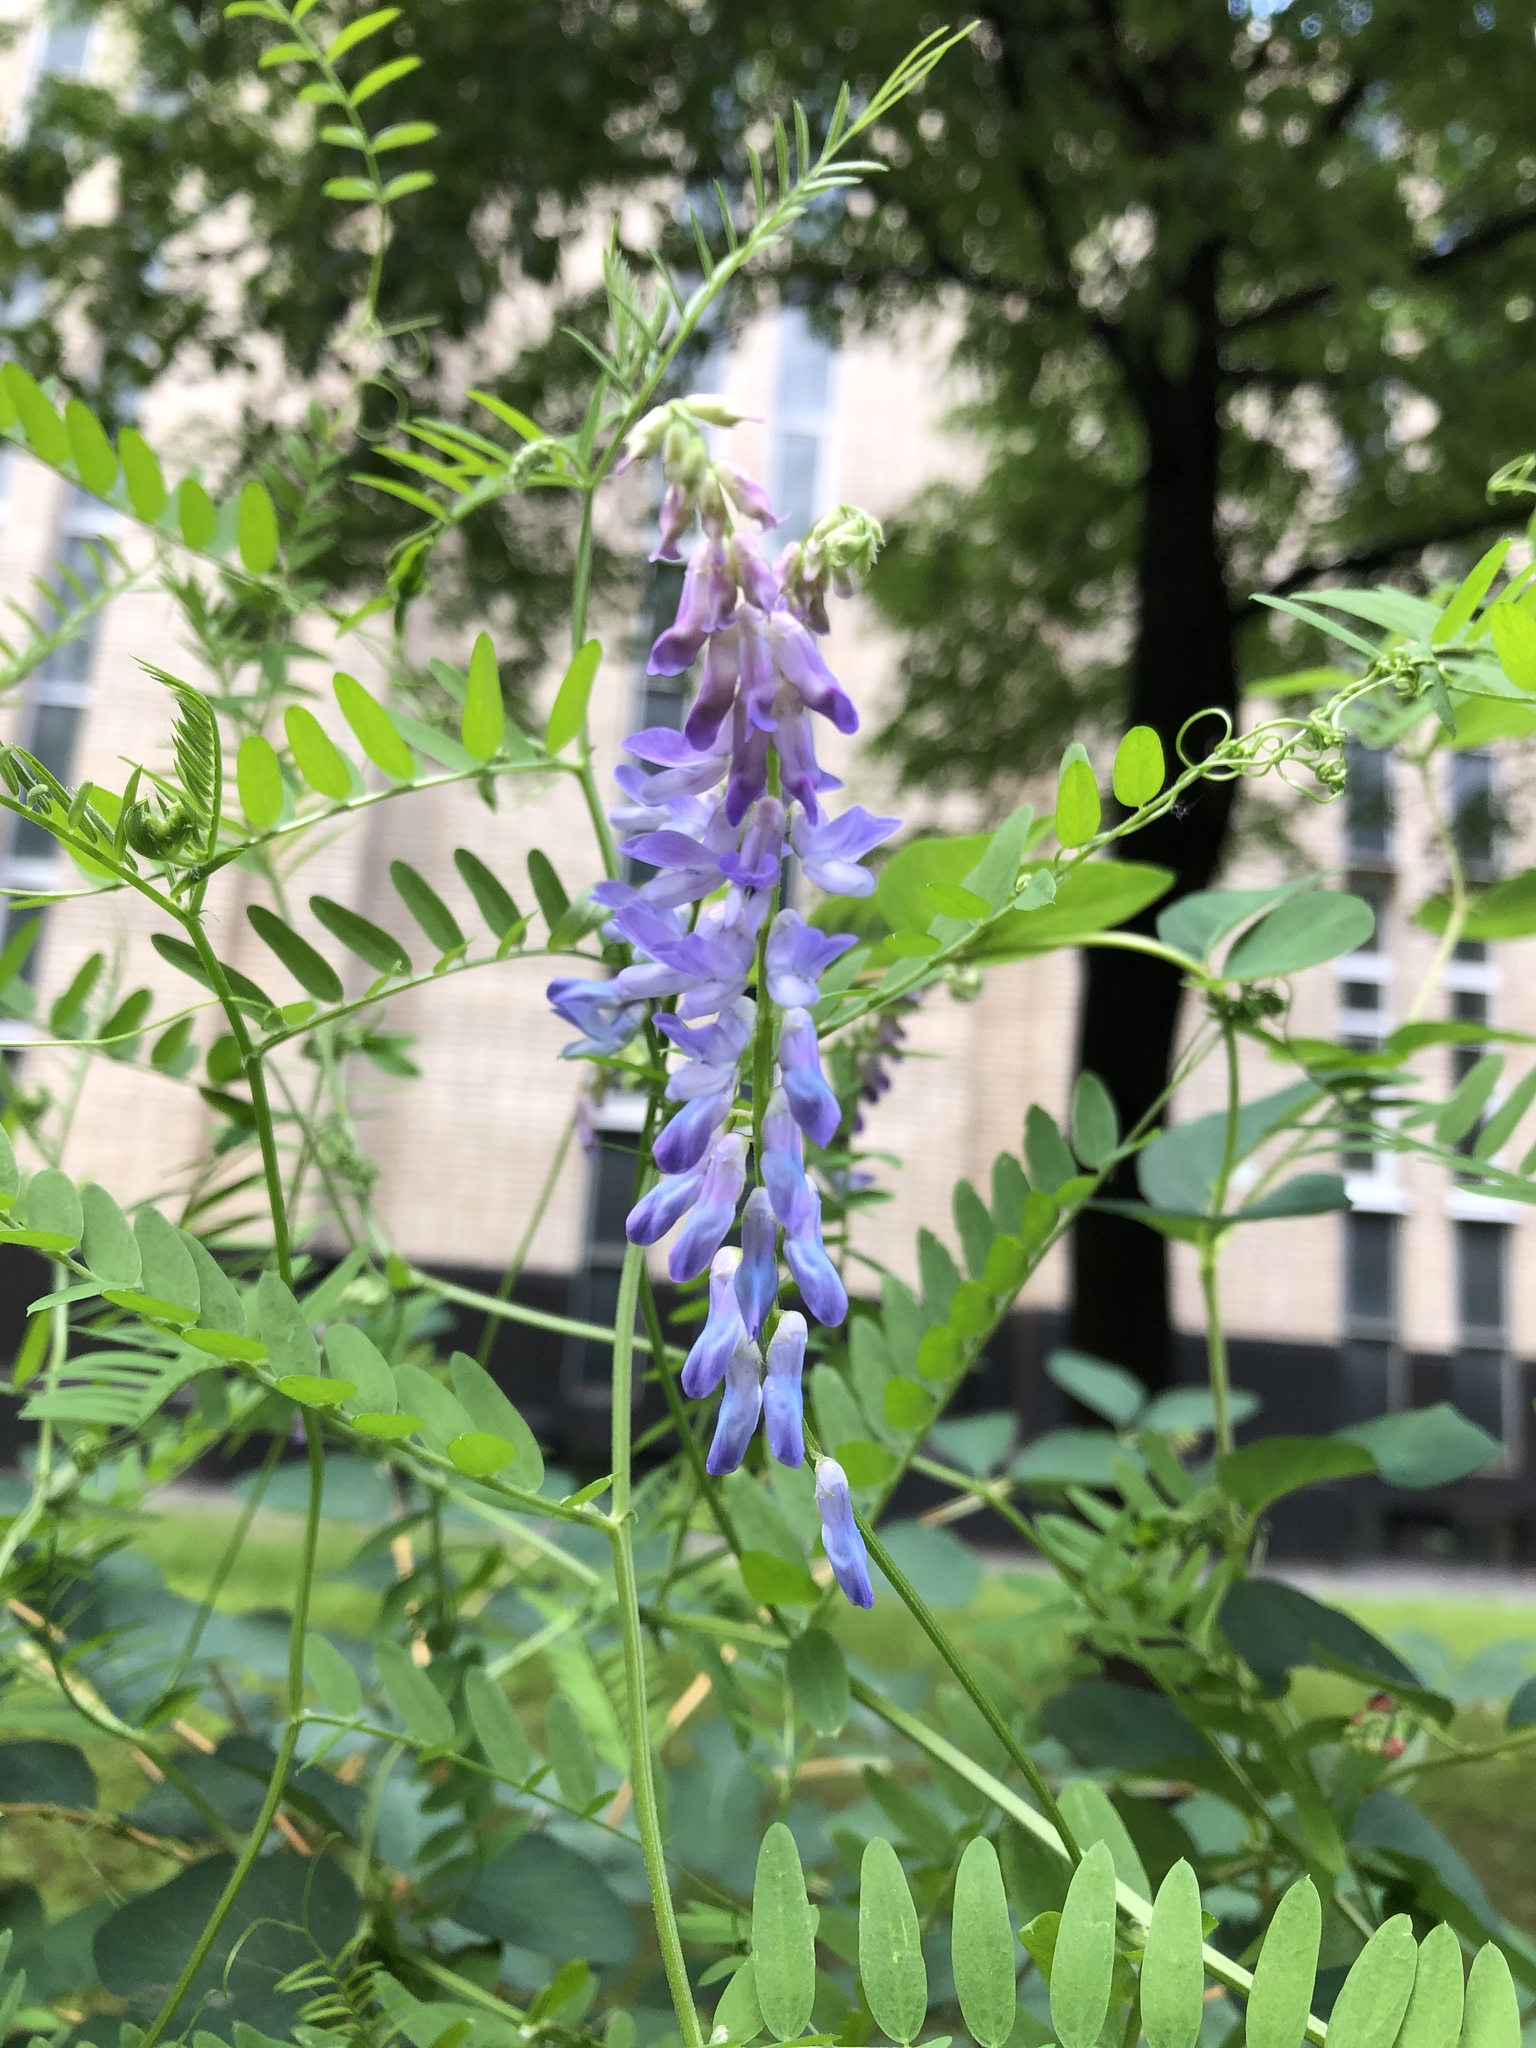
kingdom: Plantae
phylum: Tracheophyta
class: Magnoliopsida
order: Fabales
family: Fabaceae
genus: Vicia
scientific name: Vicia cracca
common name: Bird vetch
